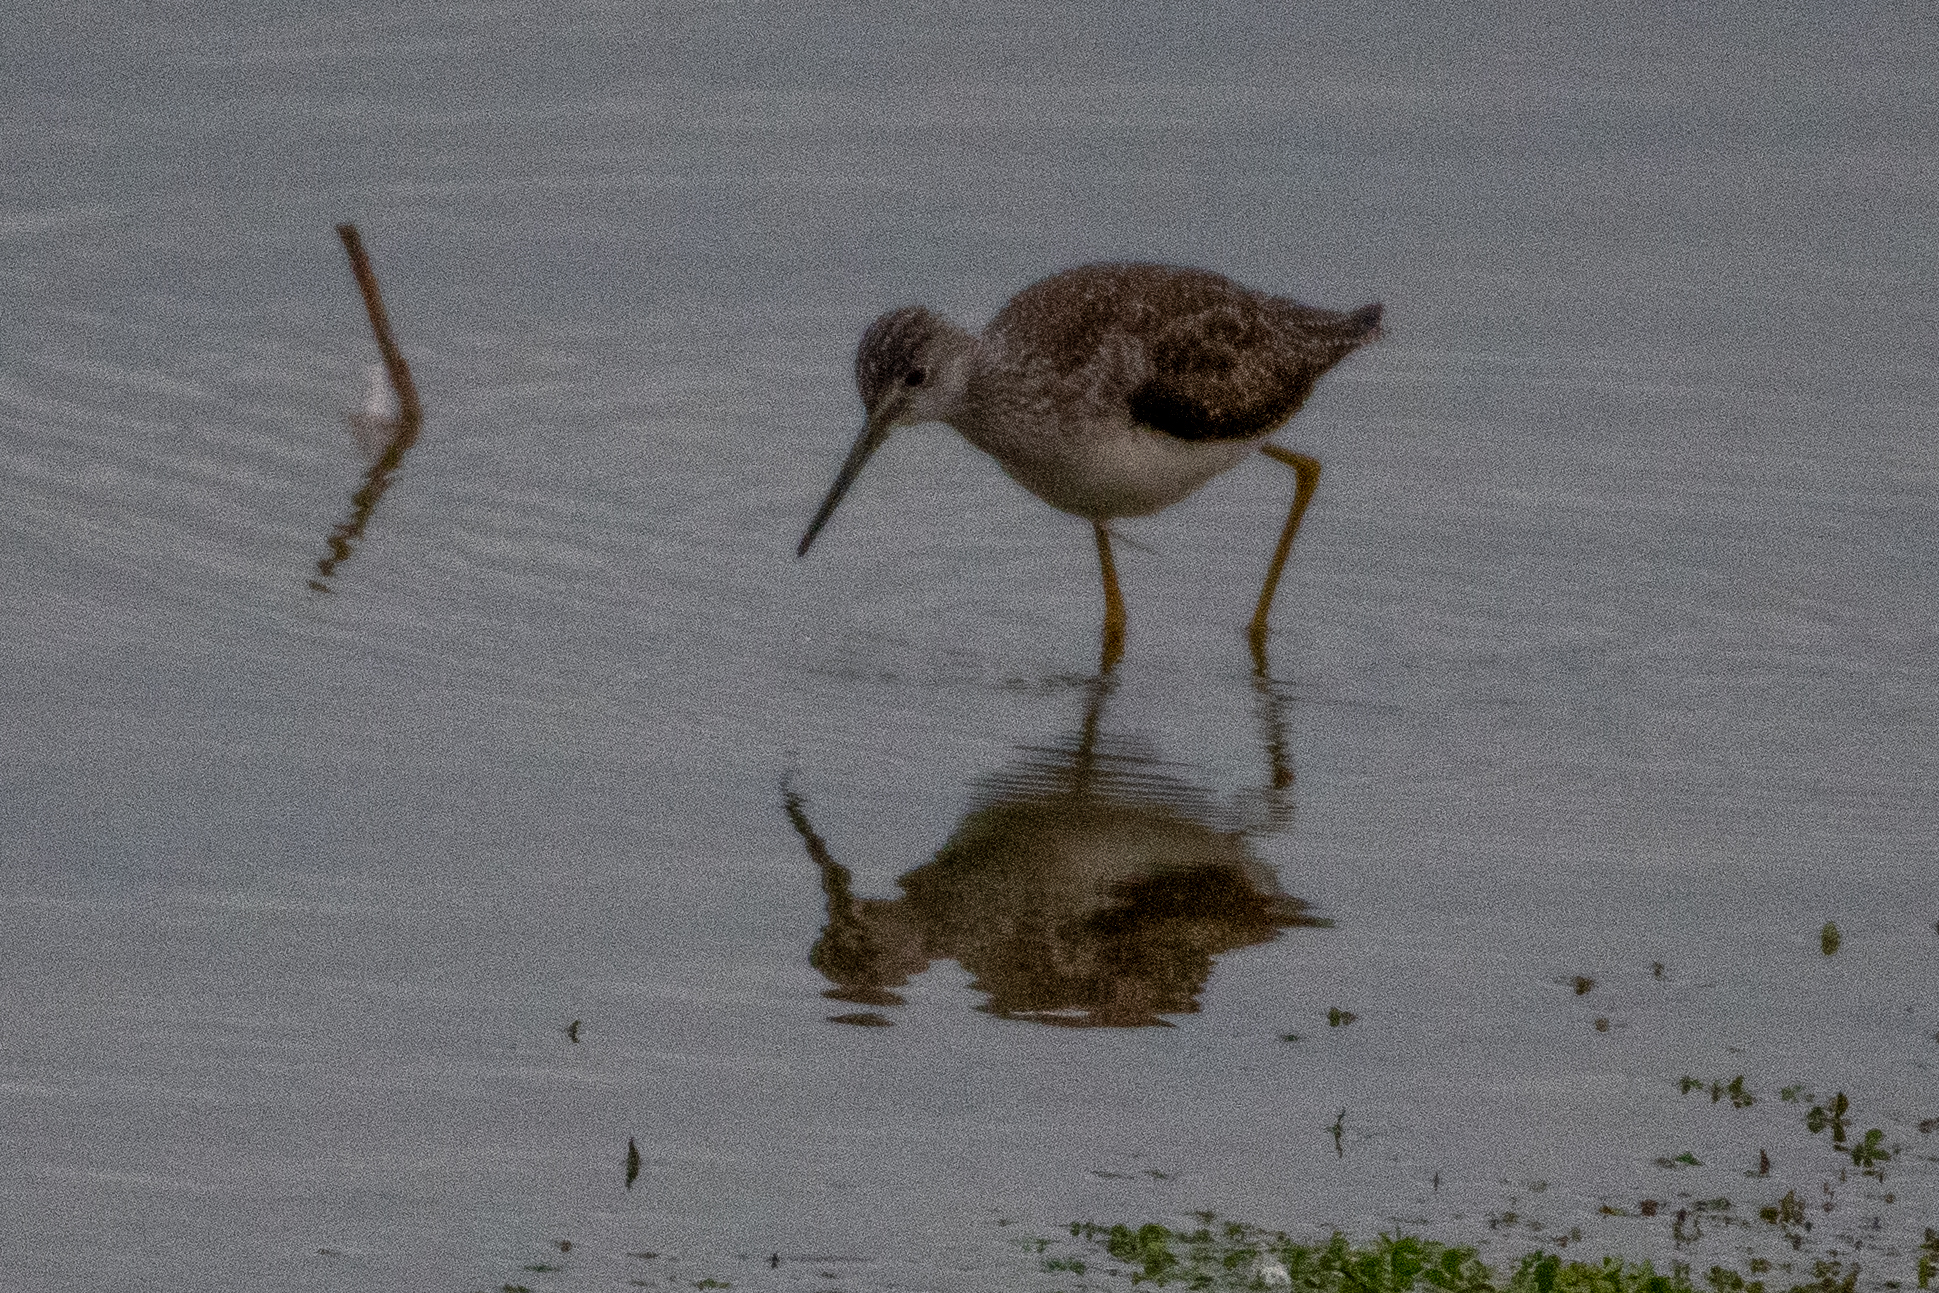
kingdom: Animalia
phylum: Chordata
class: Aves
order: Charadriiformes
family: Scolopacidae
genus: Tringa
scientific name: Tringa melanoleuca
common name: Greater yellowlegs
